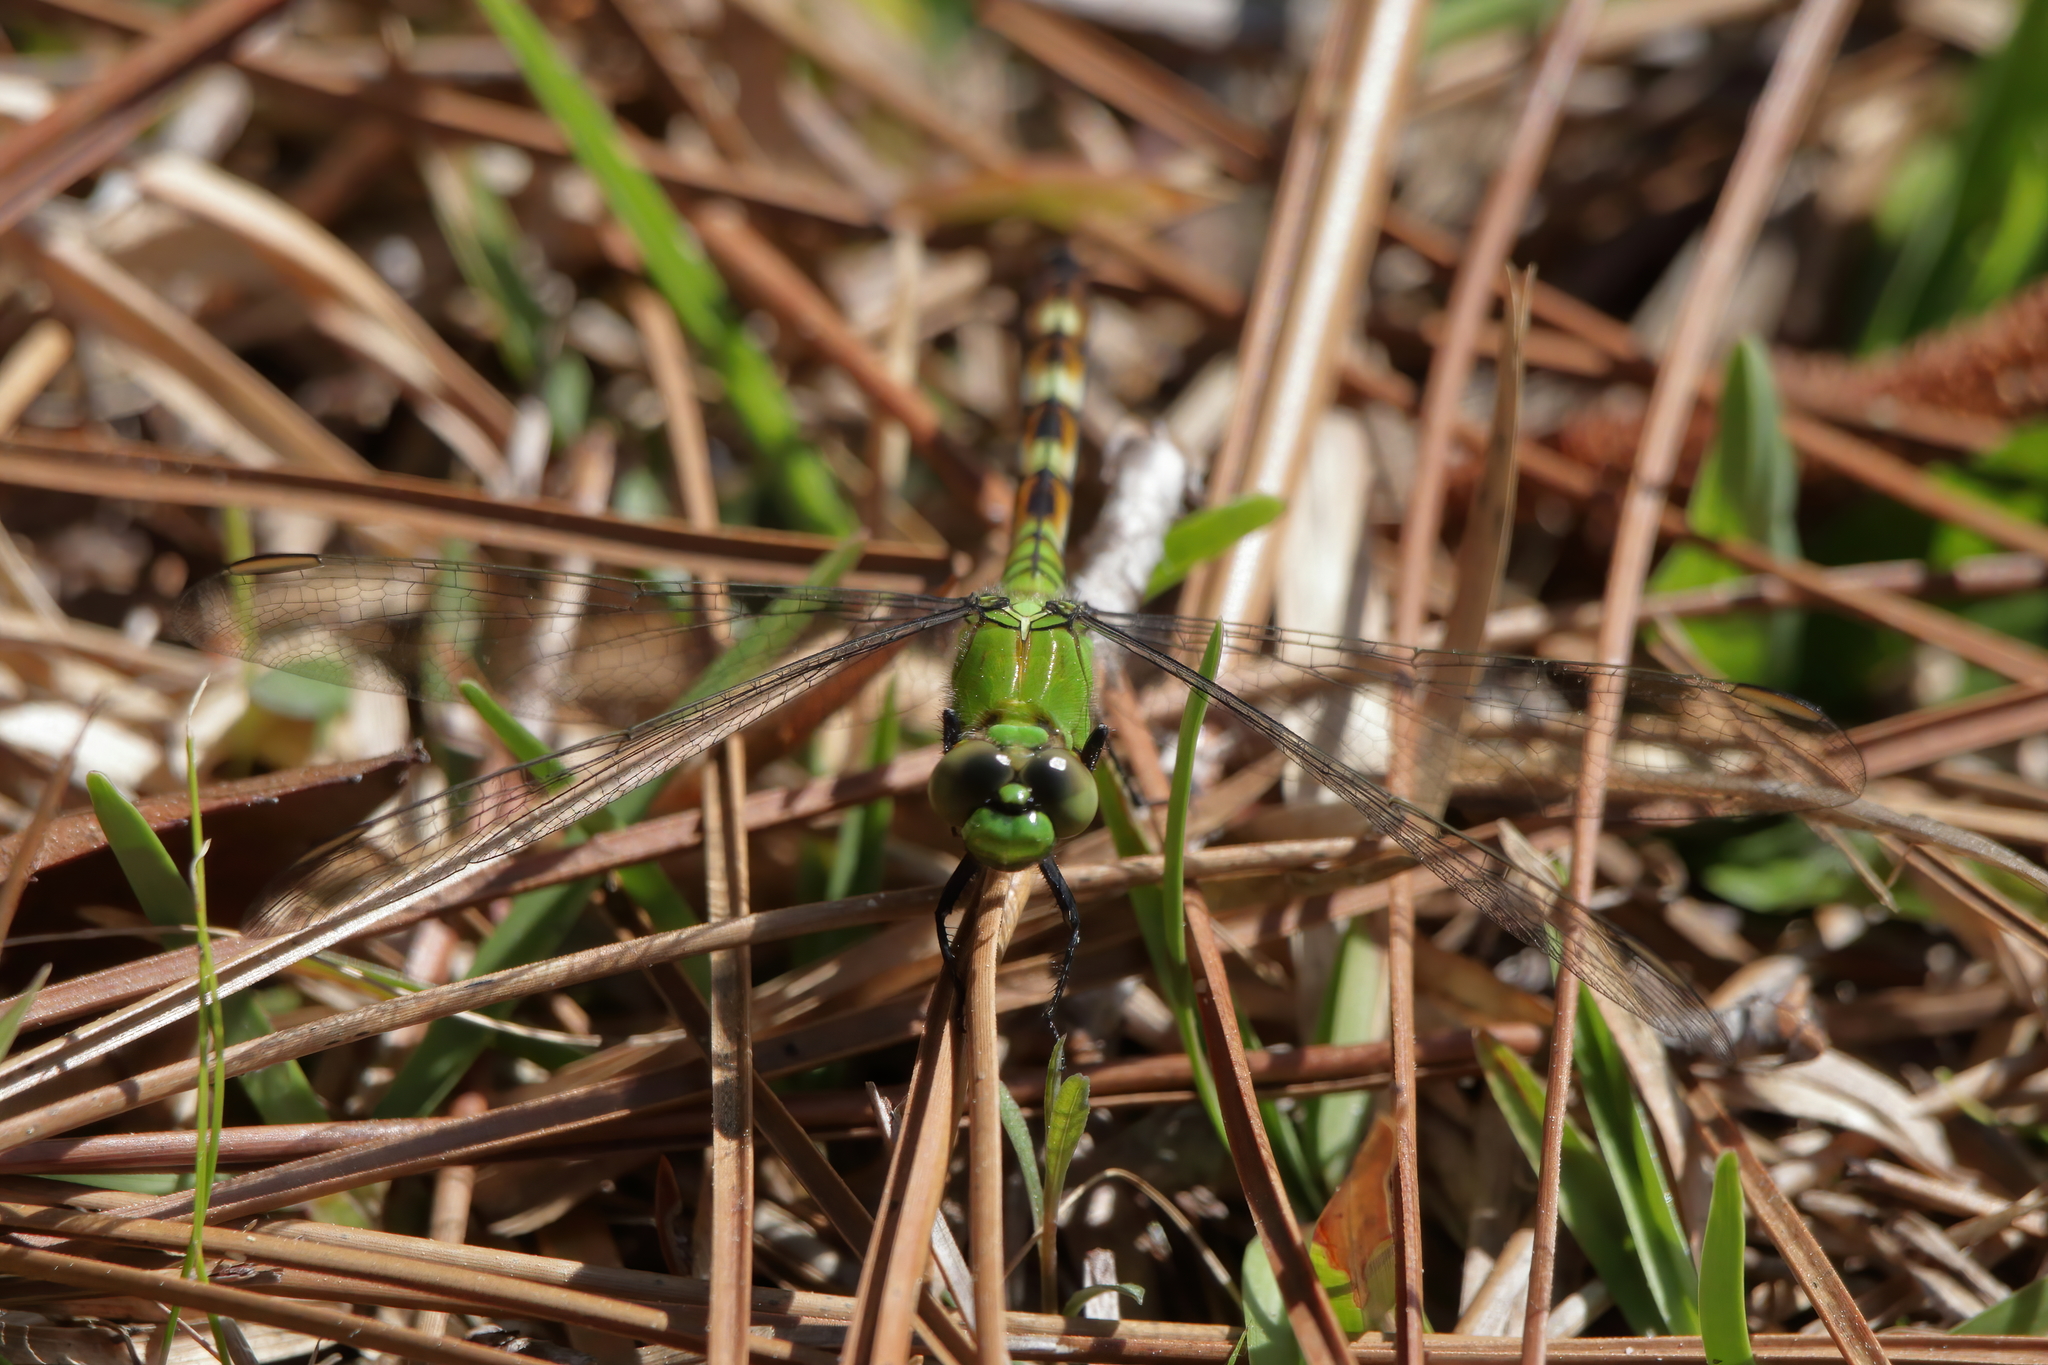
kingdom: Animalia
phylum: Arthropoda
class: Insecta
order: Odonata
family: Libellulidae
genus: Erythemis
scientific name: Erythemis simplicicollis
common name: Eastern pondhawk
